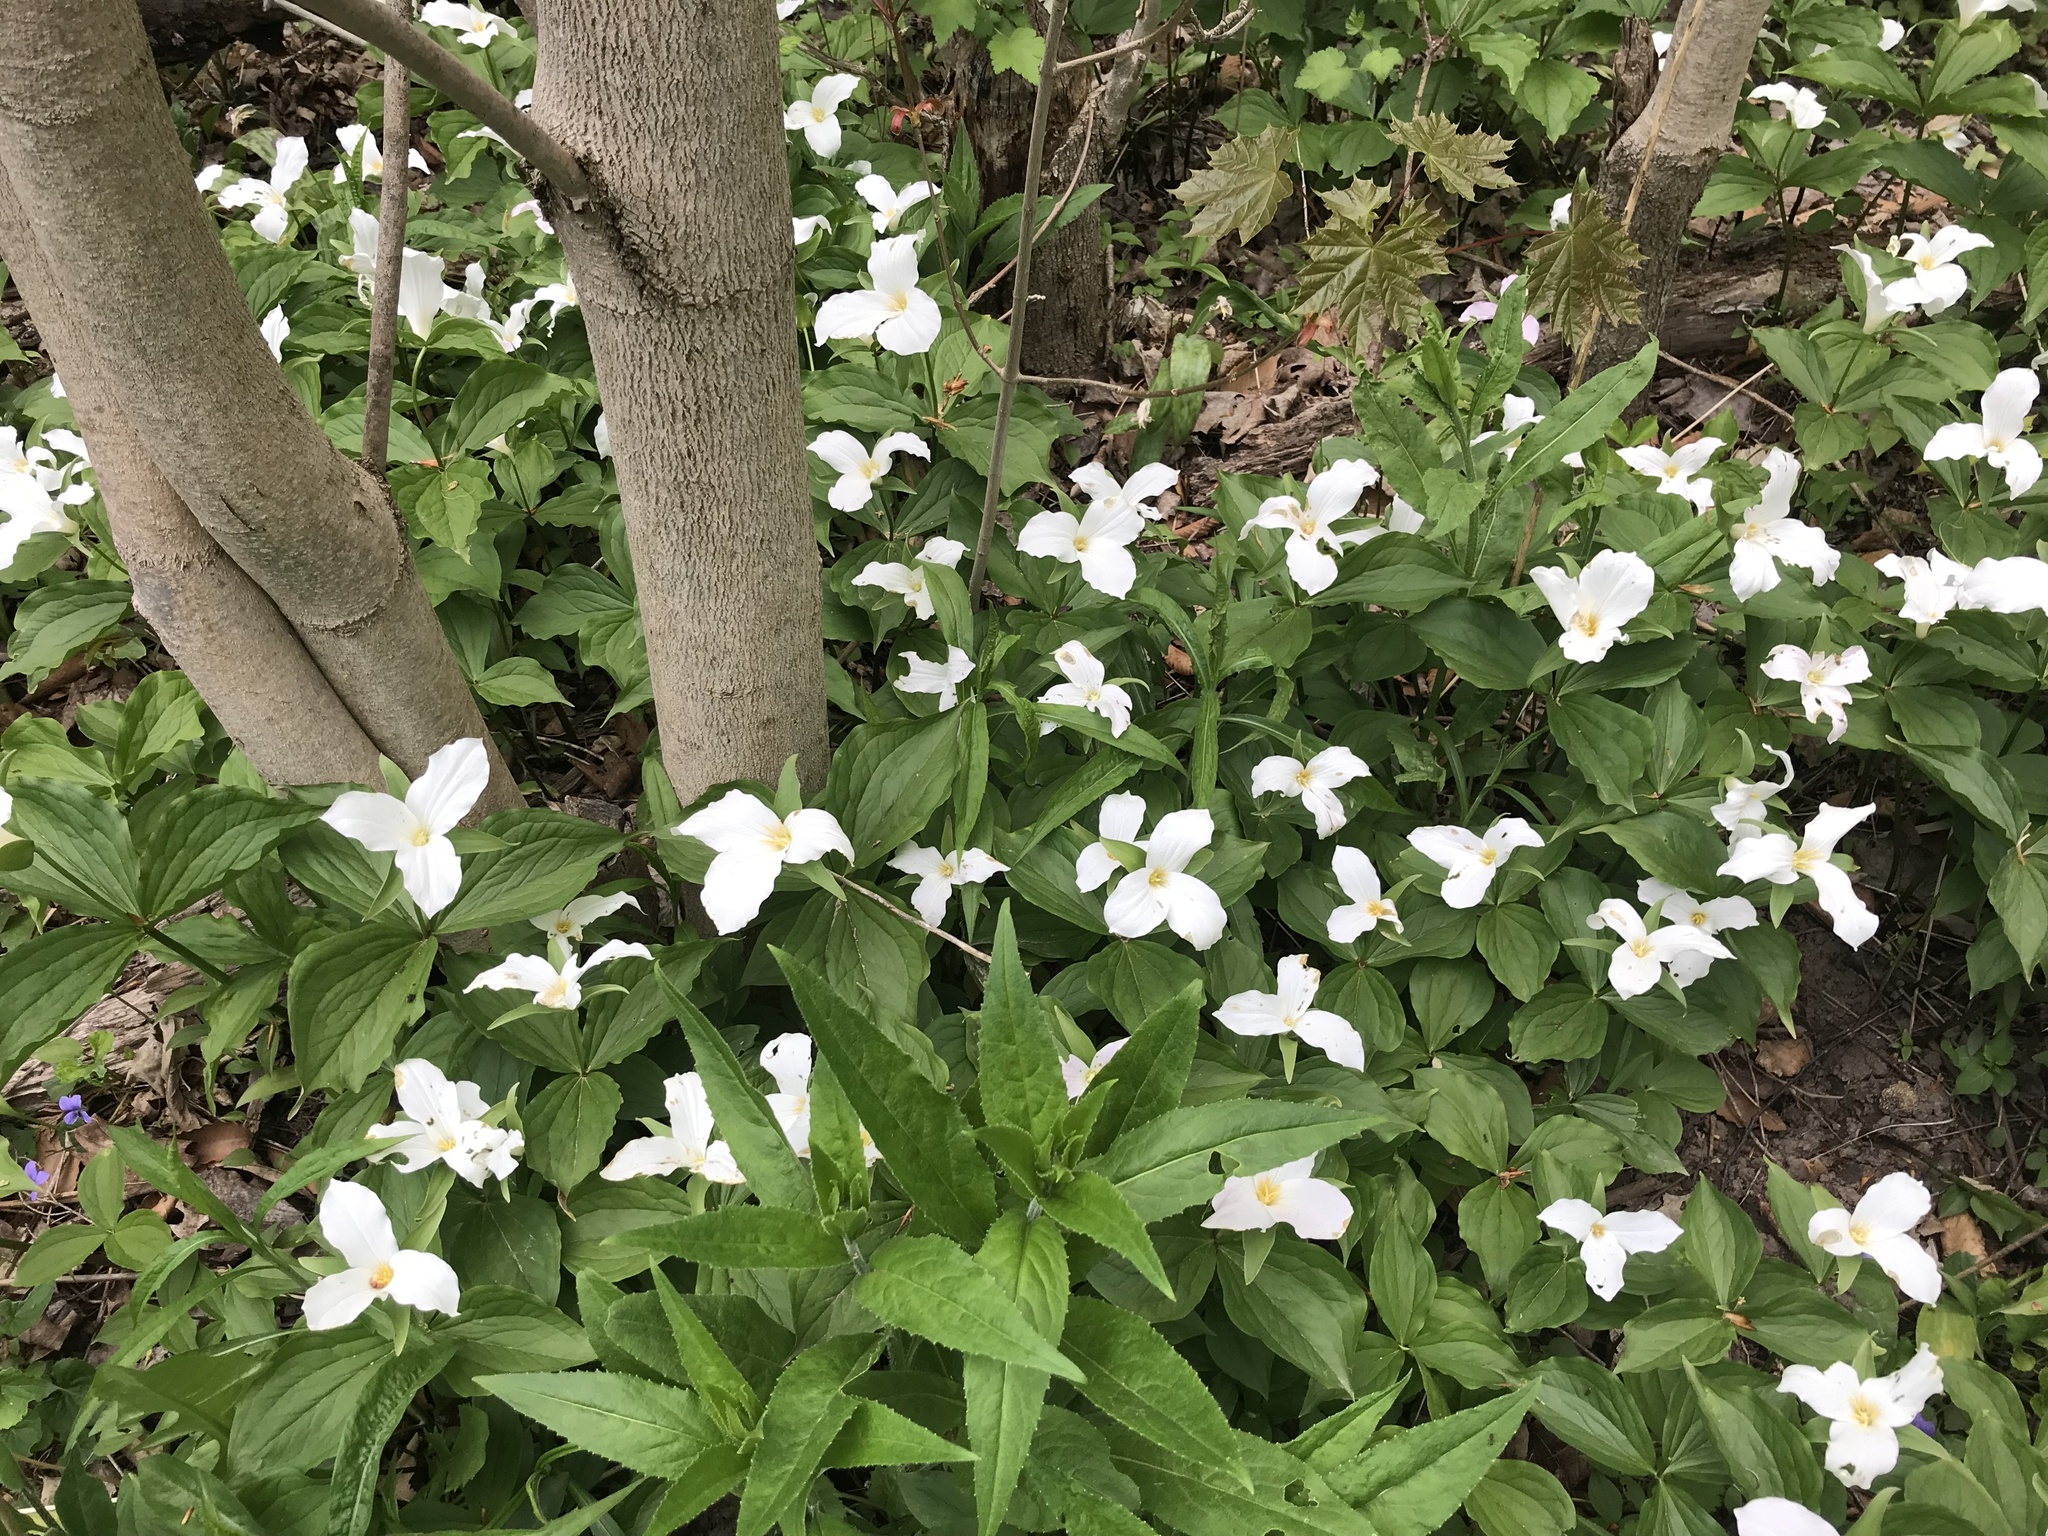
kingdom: Plantae
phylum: Tracheophyta
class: Liliopsida
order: Liliales
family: Melanthiaceae
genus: Trillium
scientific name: Trillium grandiflorum
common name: Great white trillium
